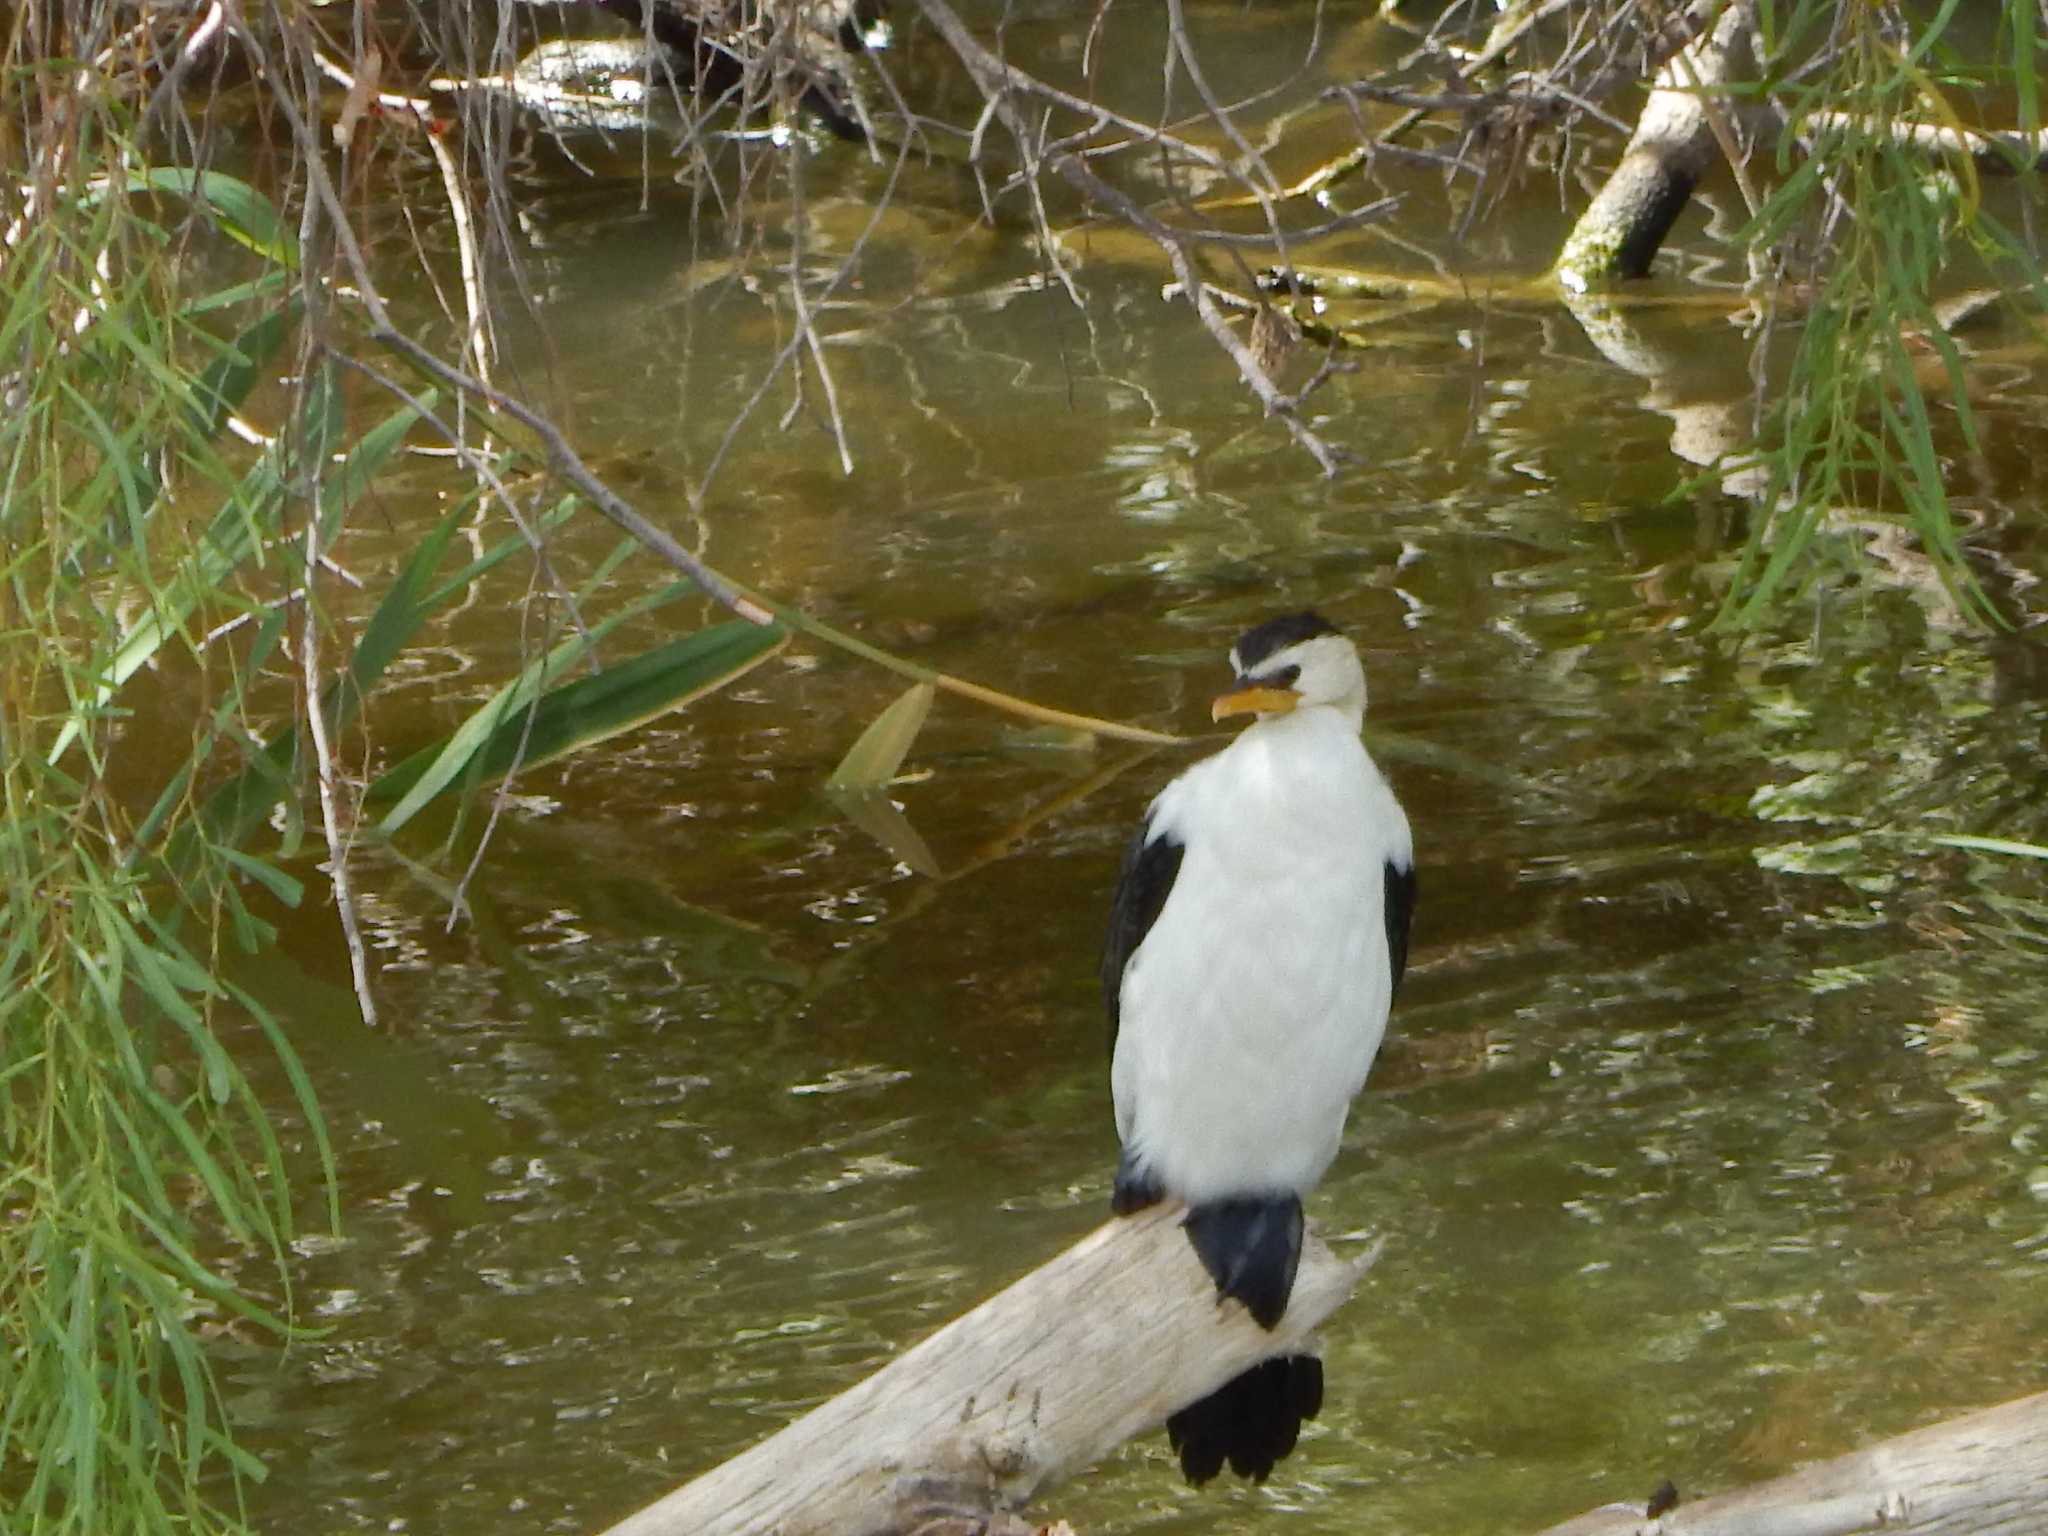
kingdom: Animalia
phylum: Chordata
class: Aves
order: Suliformes
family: Phalacrocoracidae
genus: Microcarbo
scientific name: Microcarbo melanoleucos
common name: Little pied cormorant
